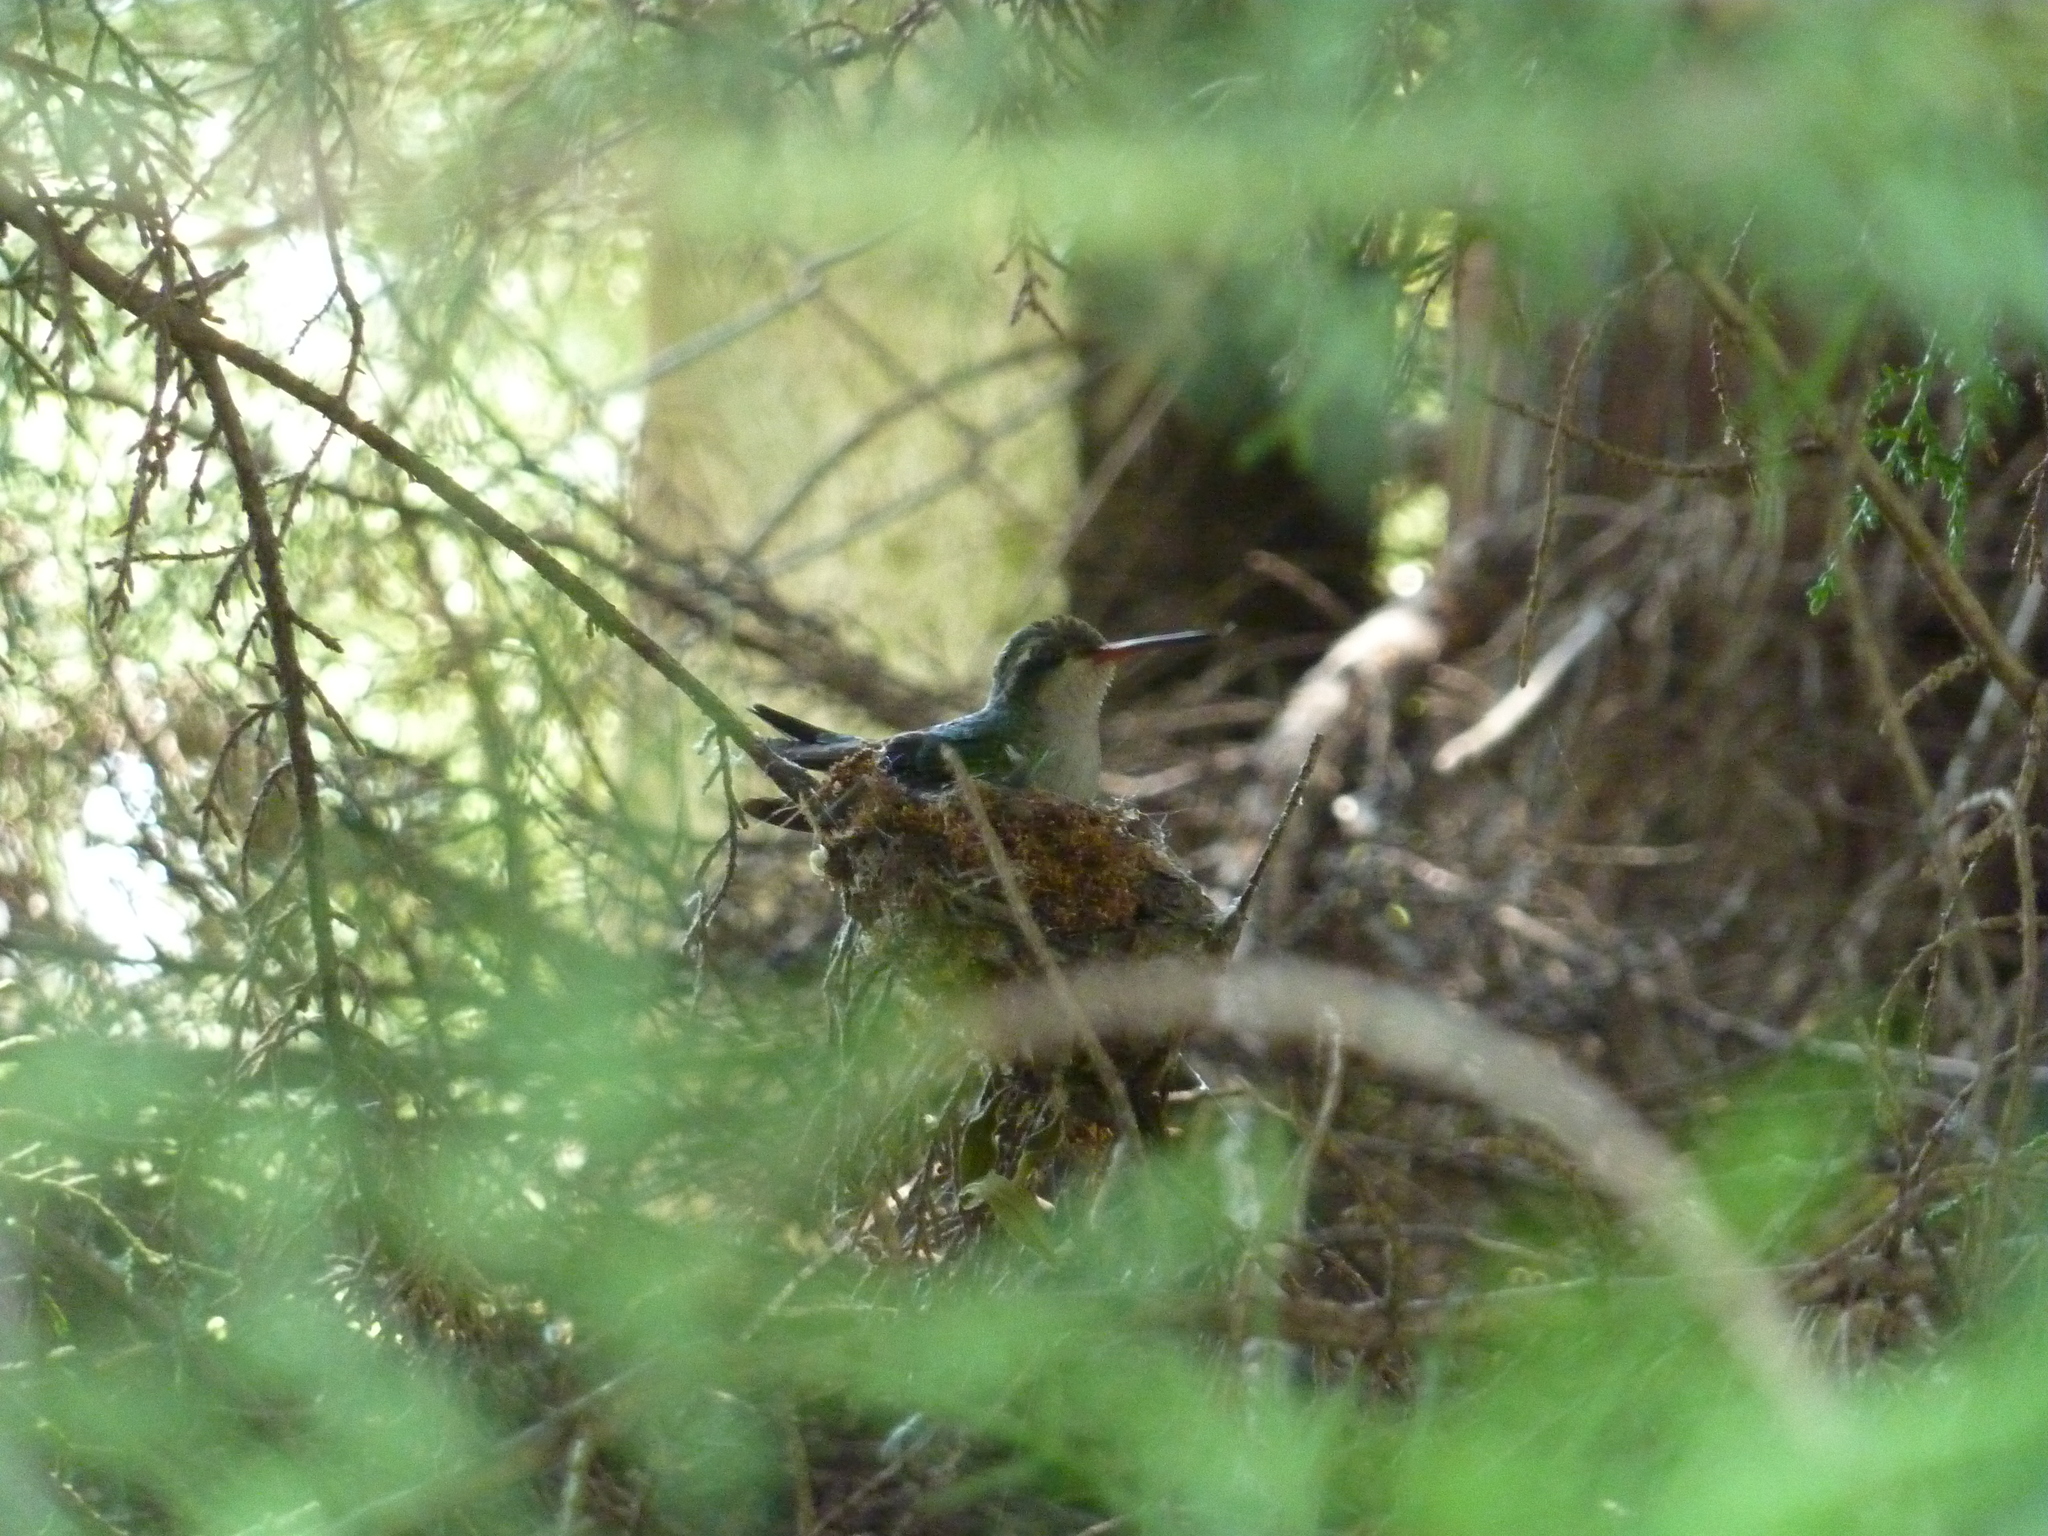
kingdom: Animalia
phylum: Chordata
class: Aves
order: Apodiformes
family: Trochilidae
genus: Chlorostilbon
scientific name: Chlorostilbon lucidus
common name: Glittering-bellied emerald
